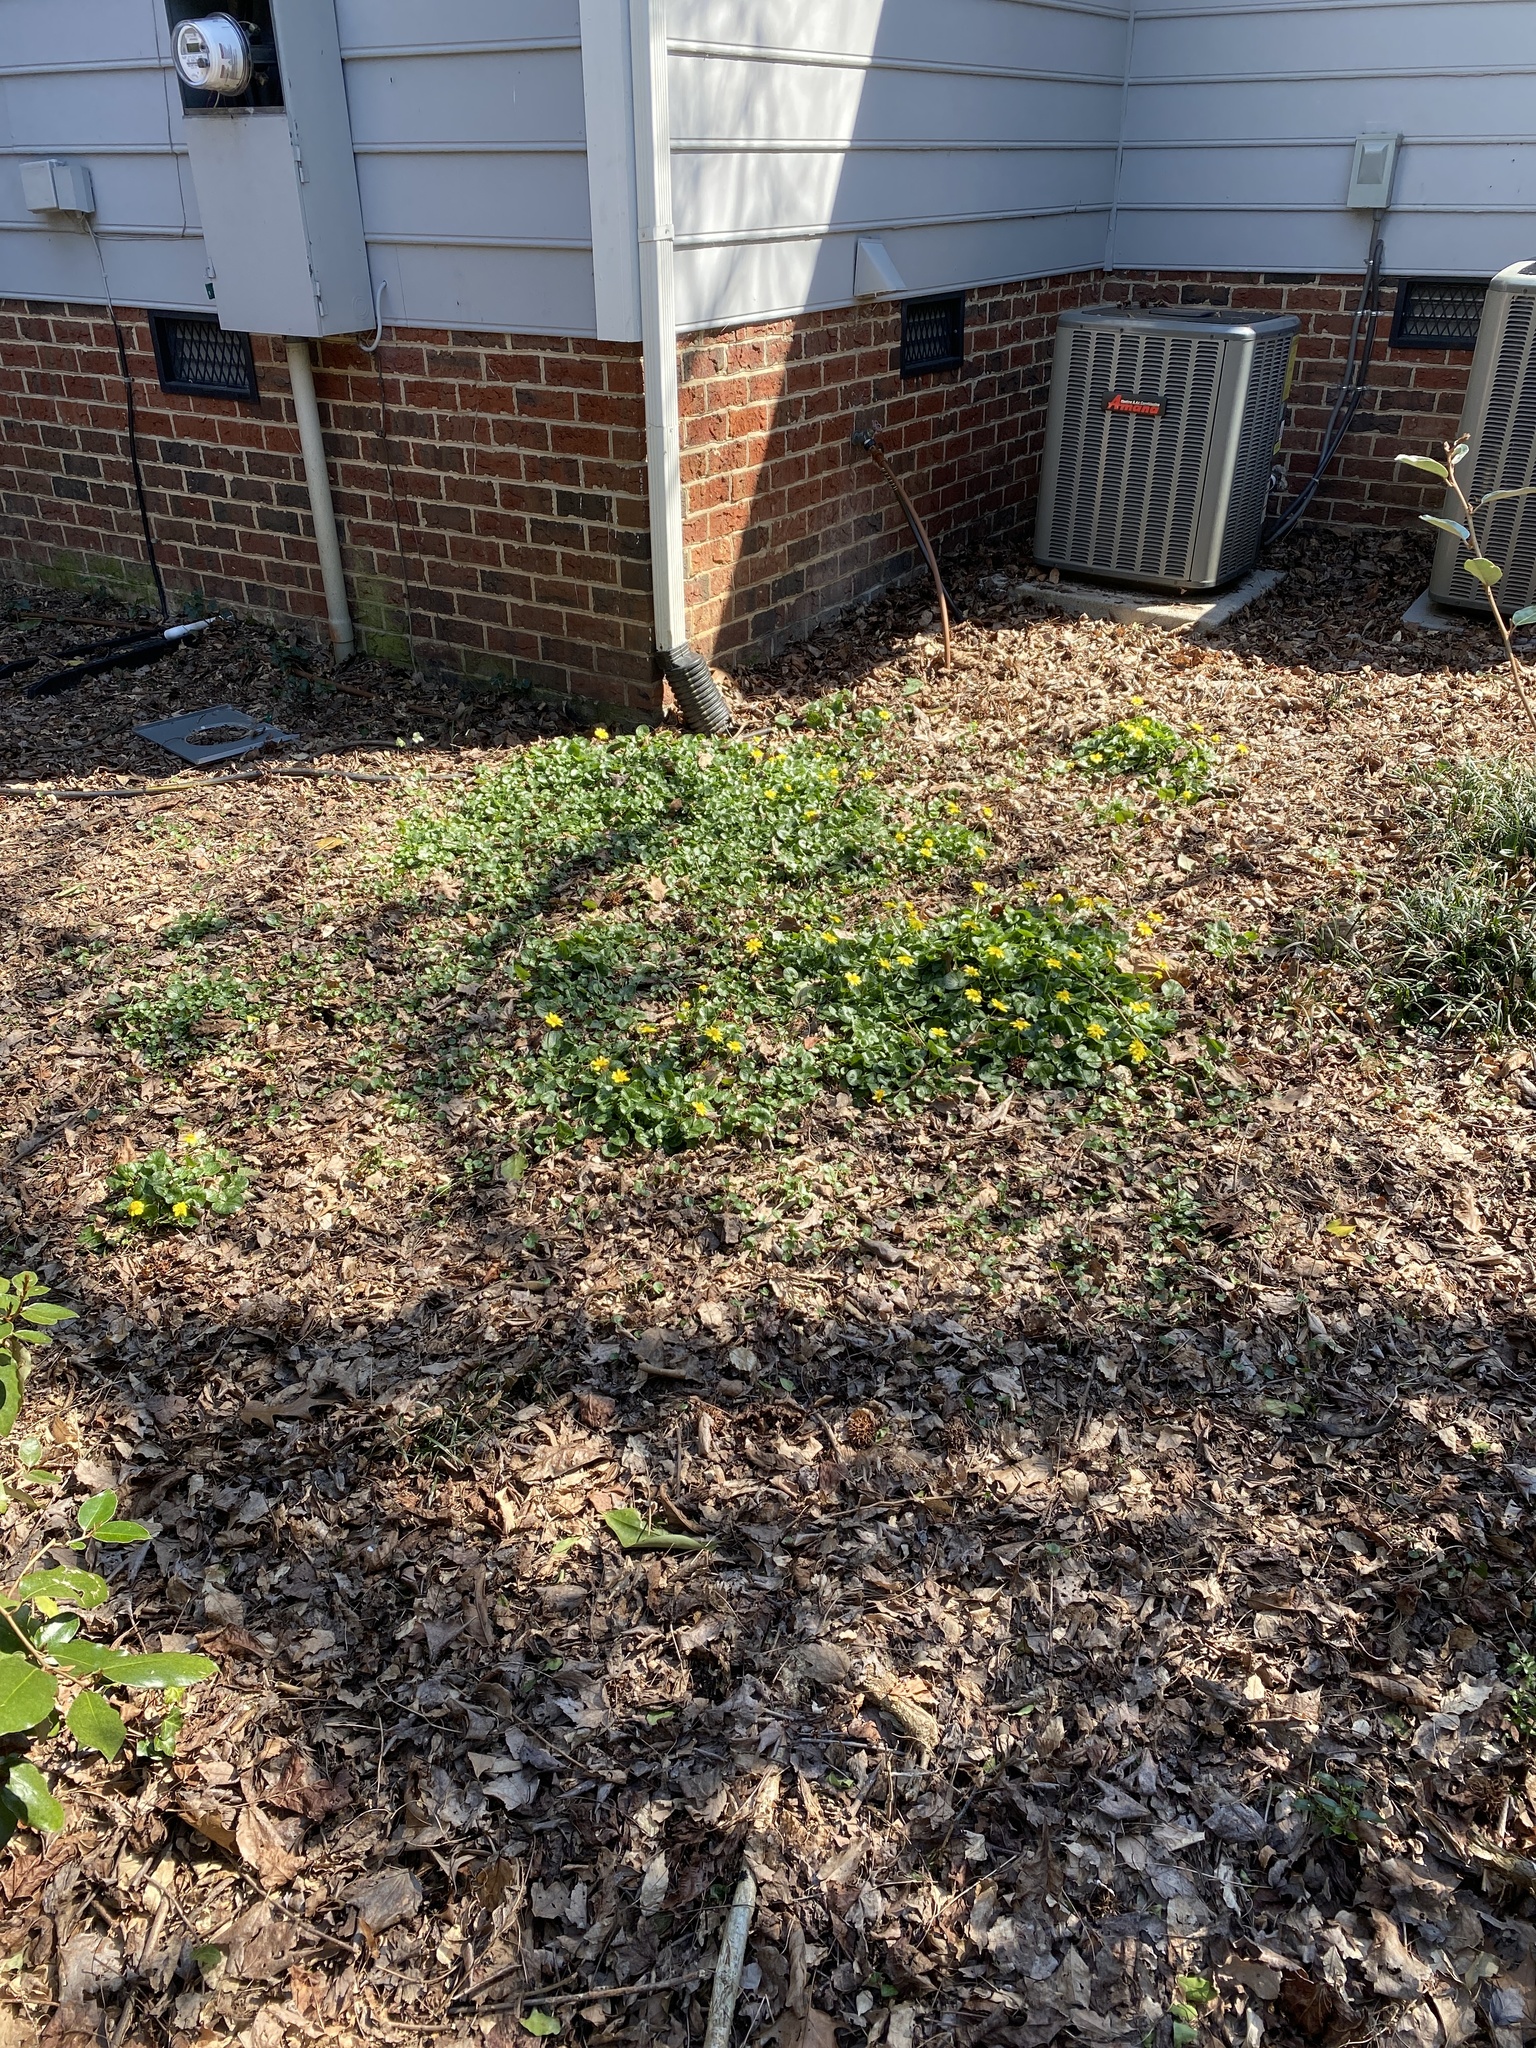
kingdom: Plantae
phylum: Tracheophyta
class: Magnoliopsida
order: Ranunculales
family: Ranunculaceae
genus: Ficaria
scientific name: Ficaria verna
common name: Lesser celandine
